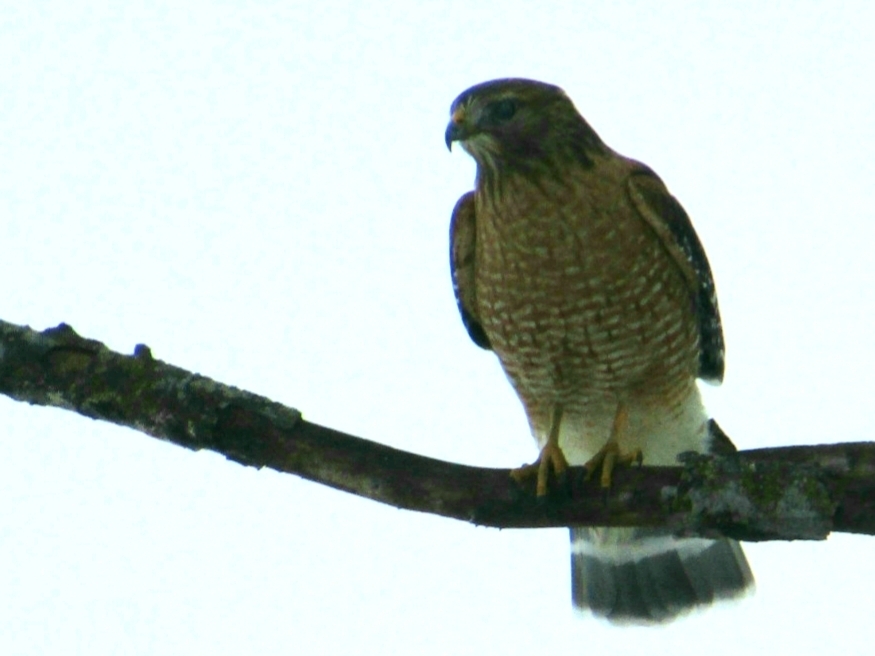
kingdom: Animalia
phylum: Chordata
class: Aves
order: Accipitriformes
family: Accipitridae
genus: Buteo
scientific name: Buteo lineatus
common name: Red-shouldered hawk
